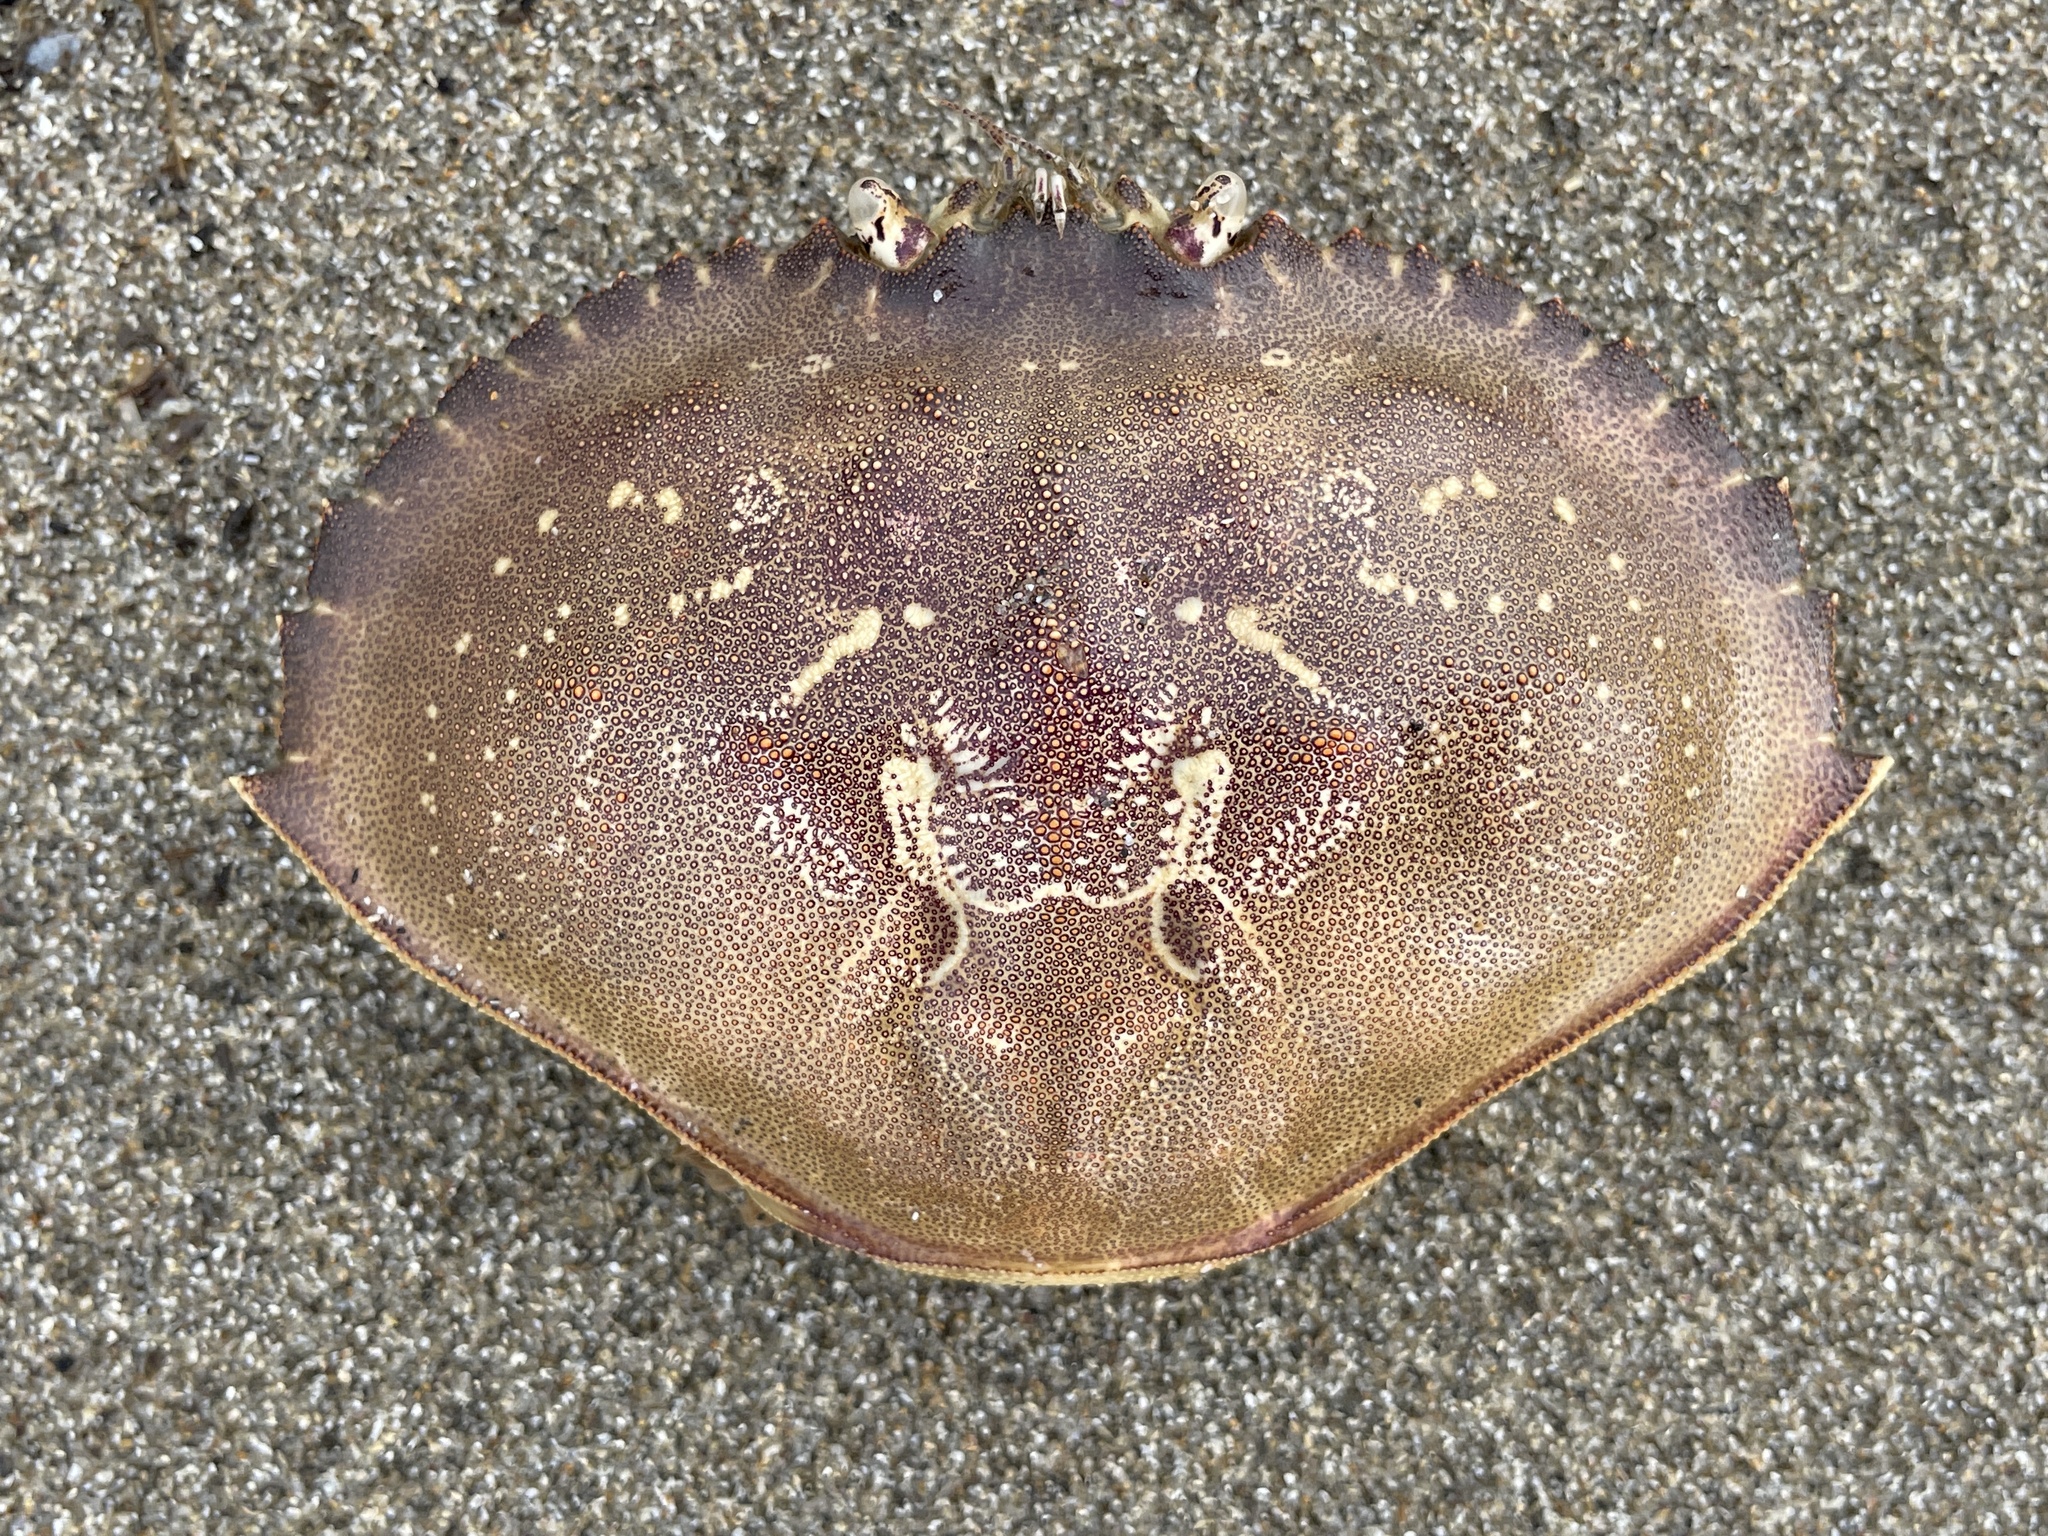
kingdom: Animalia
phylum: Arthropoda
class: Malacostraca
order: Decapoda
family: Cancridae
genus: Metacarcinus
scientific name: Metacarcinus magister
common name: Californian crab
